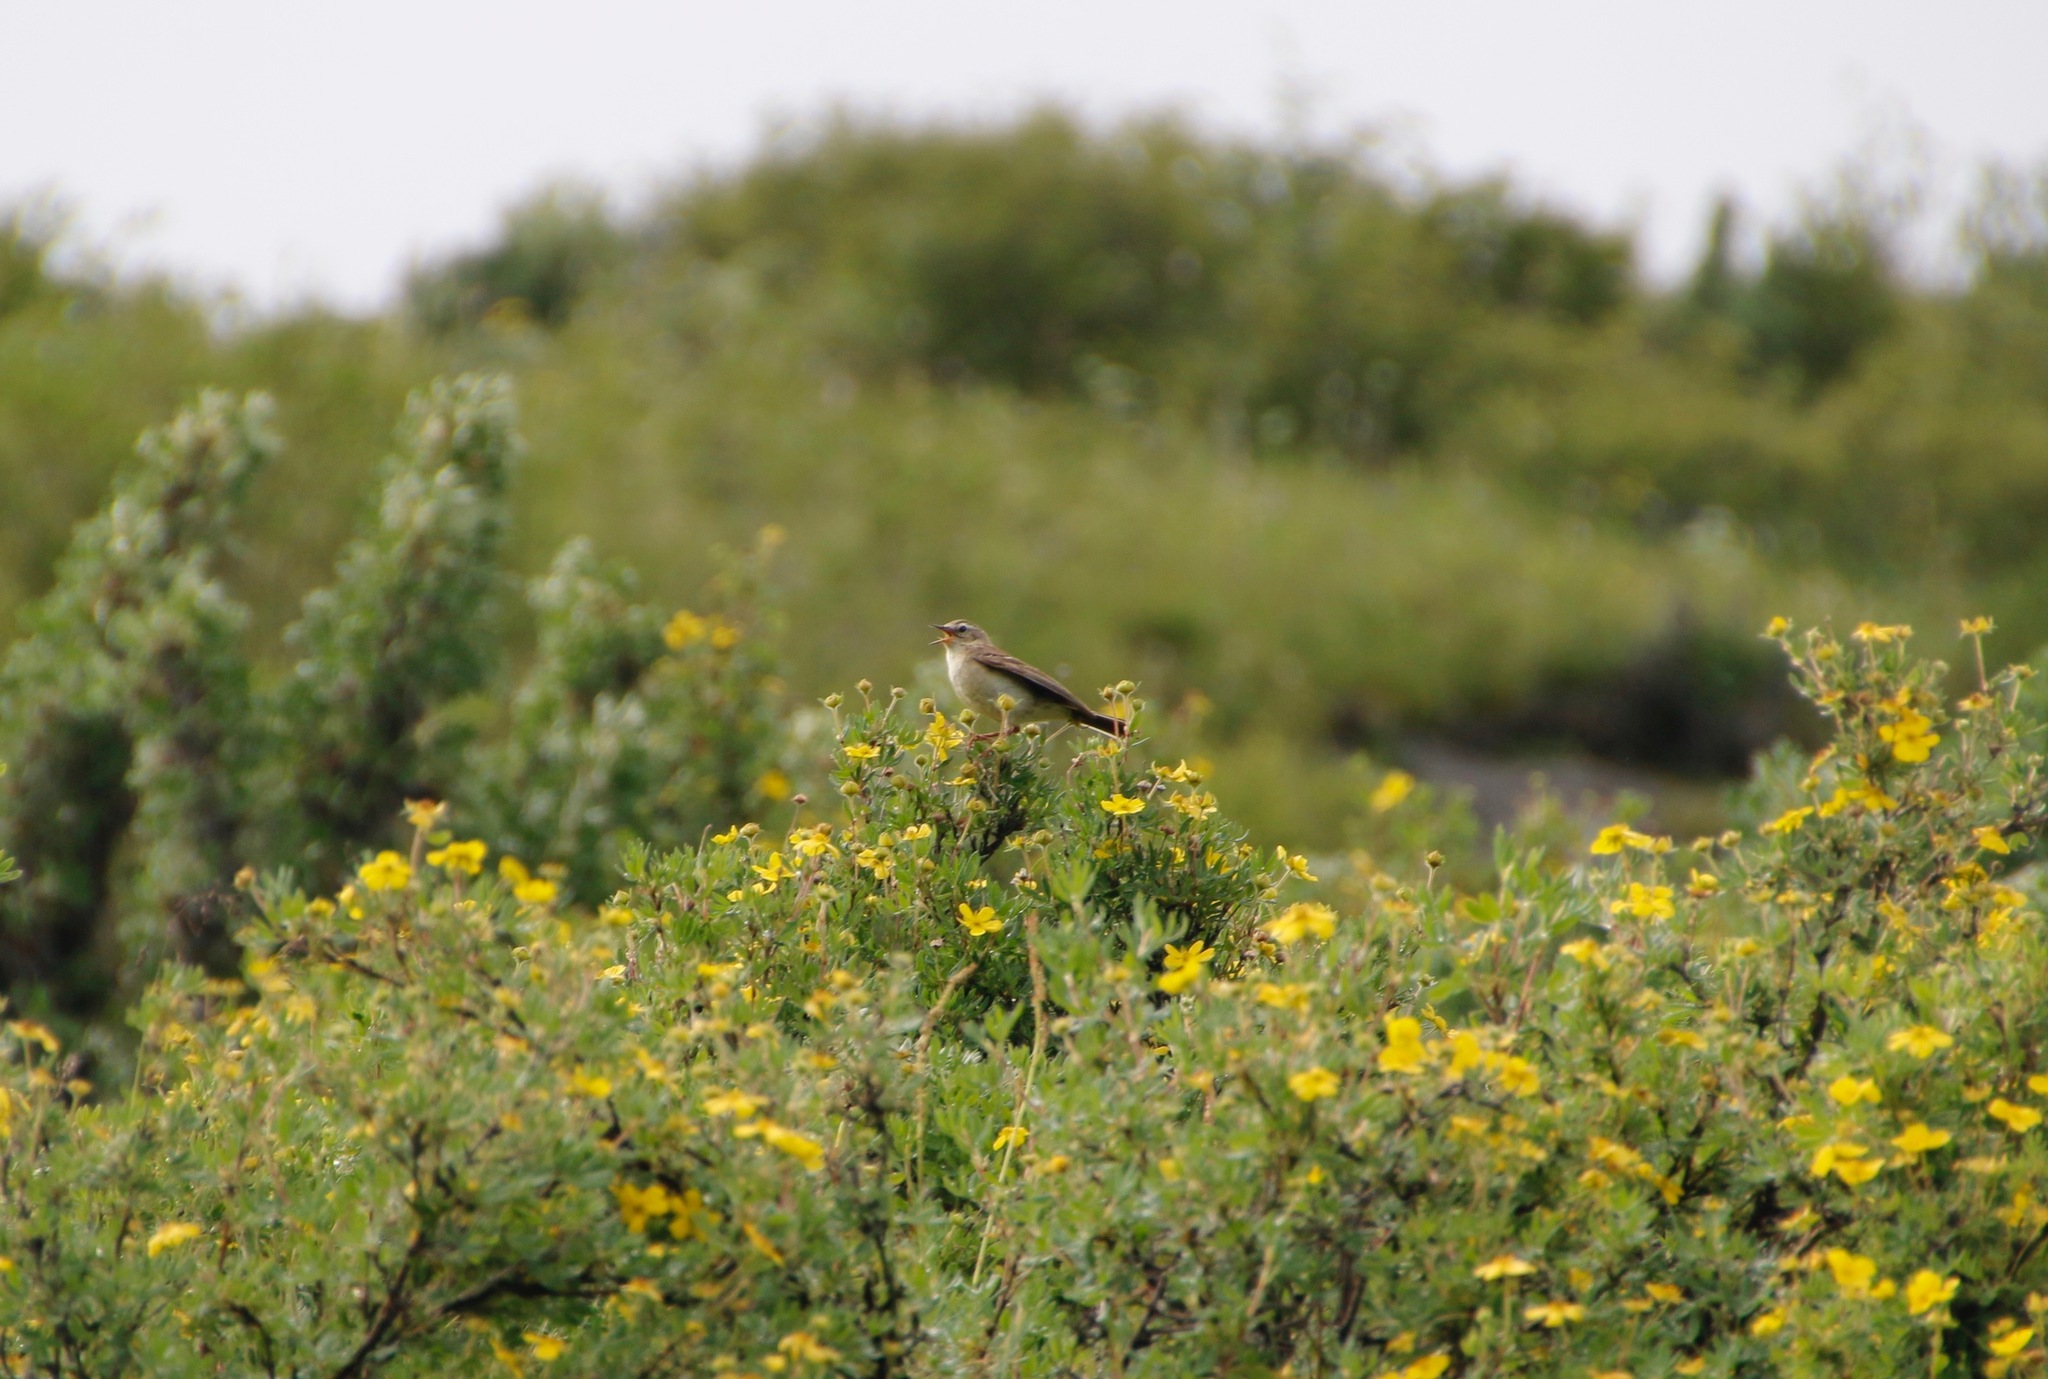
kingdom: Animalia
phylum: Chordata
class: Aves
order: Passeriformes
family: Motacillidae
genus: Anthus
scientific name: Anthus spinoletta
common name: Water pipit
